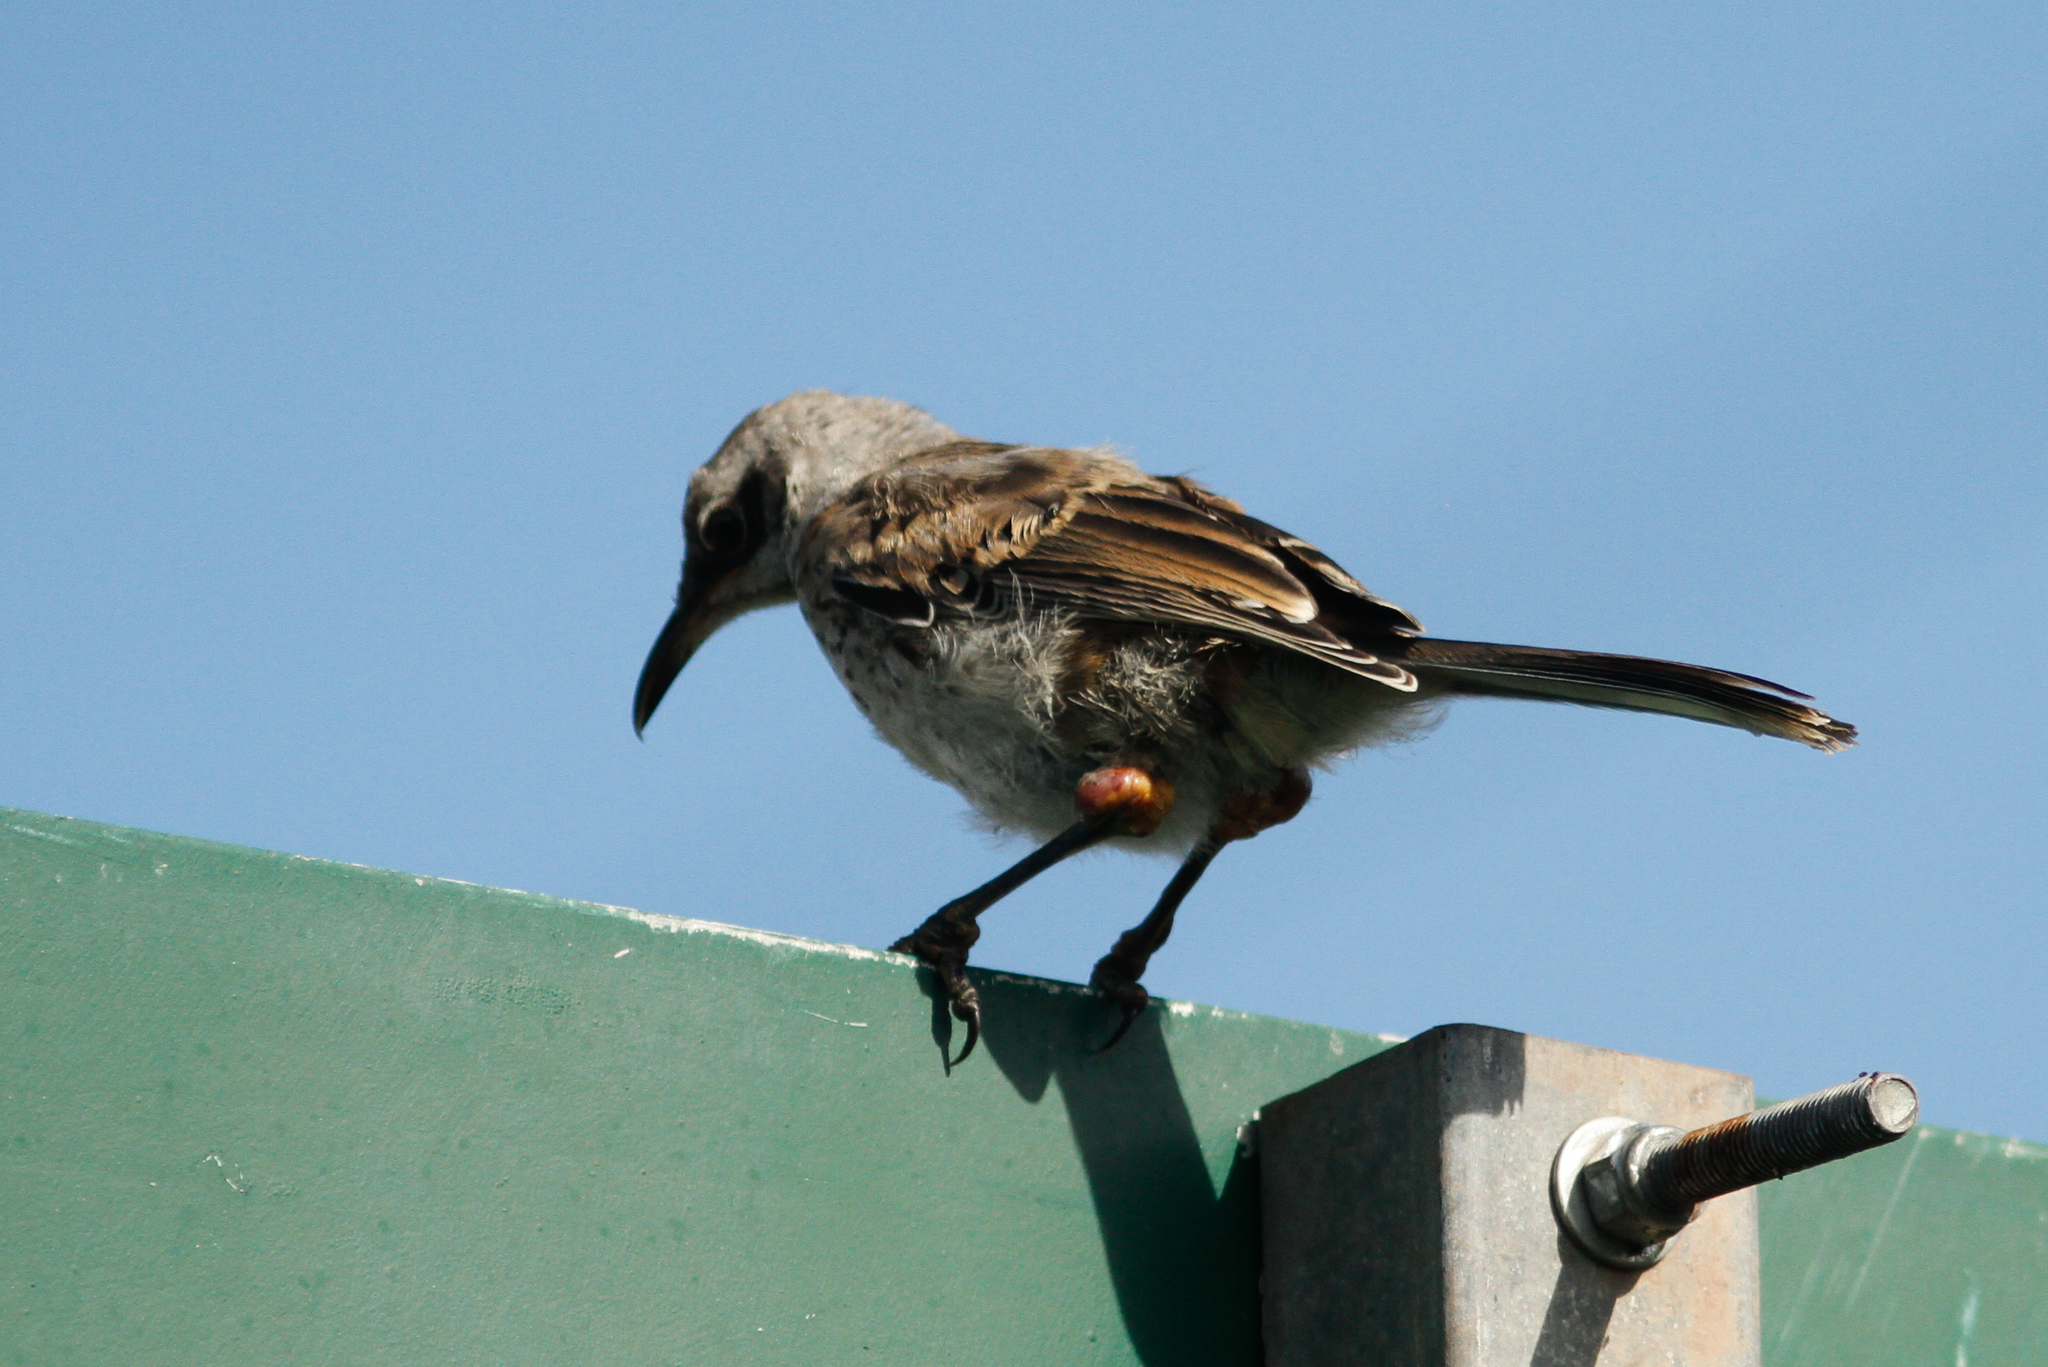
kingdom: Animalia
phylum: Chordata
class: Aves
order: Passeriformes
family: Mimidae
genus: Mimus
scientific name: Mimus melanotis
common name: San cristobal mockingbird
